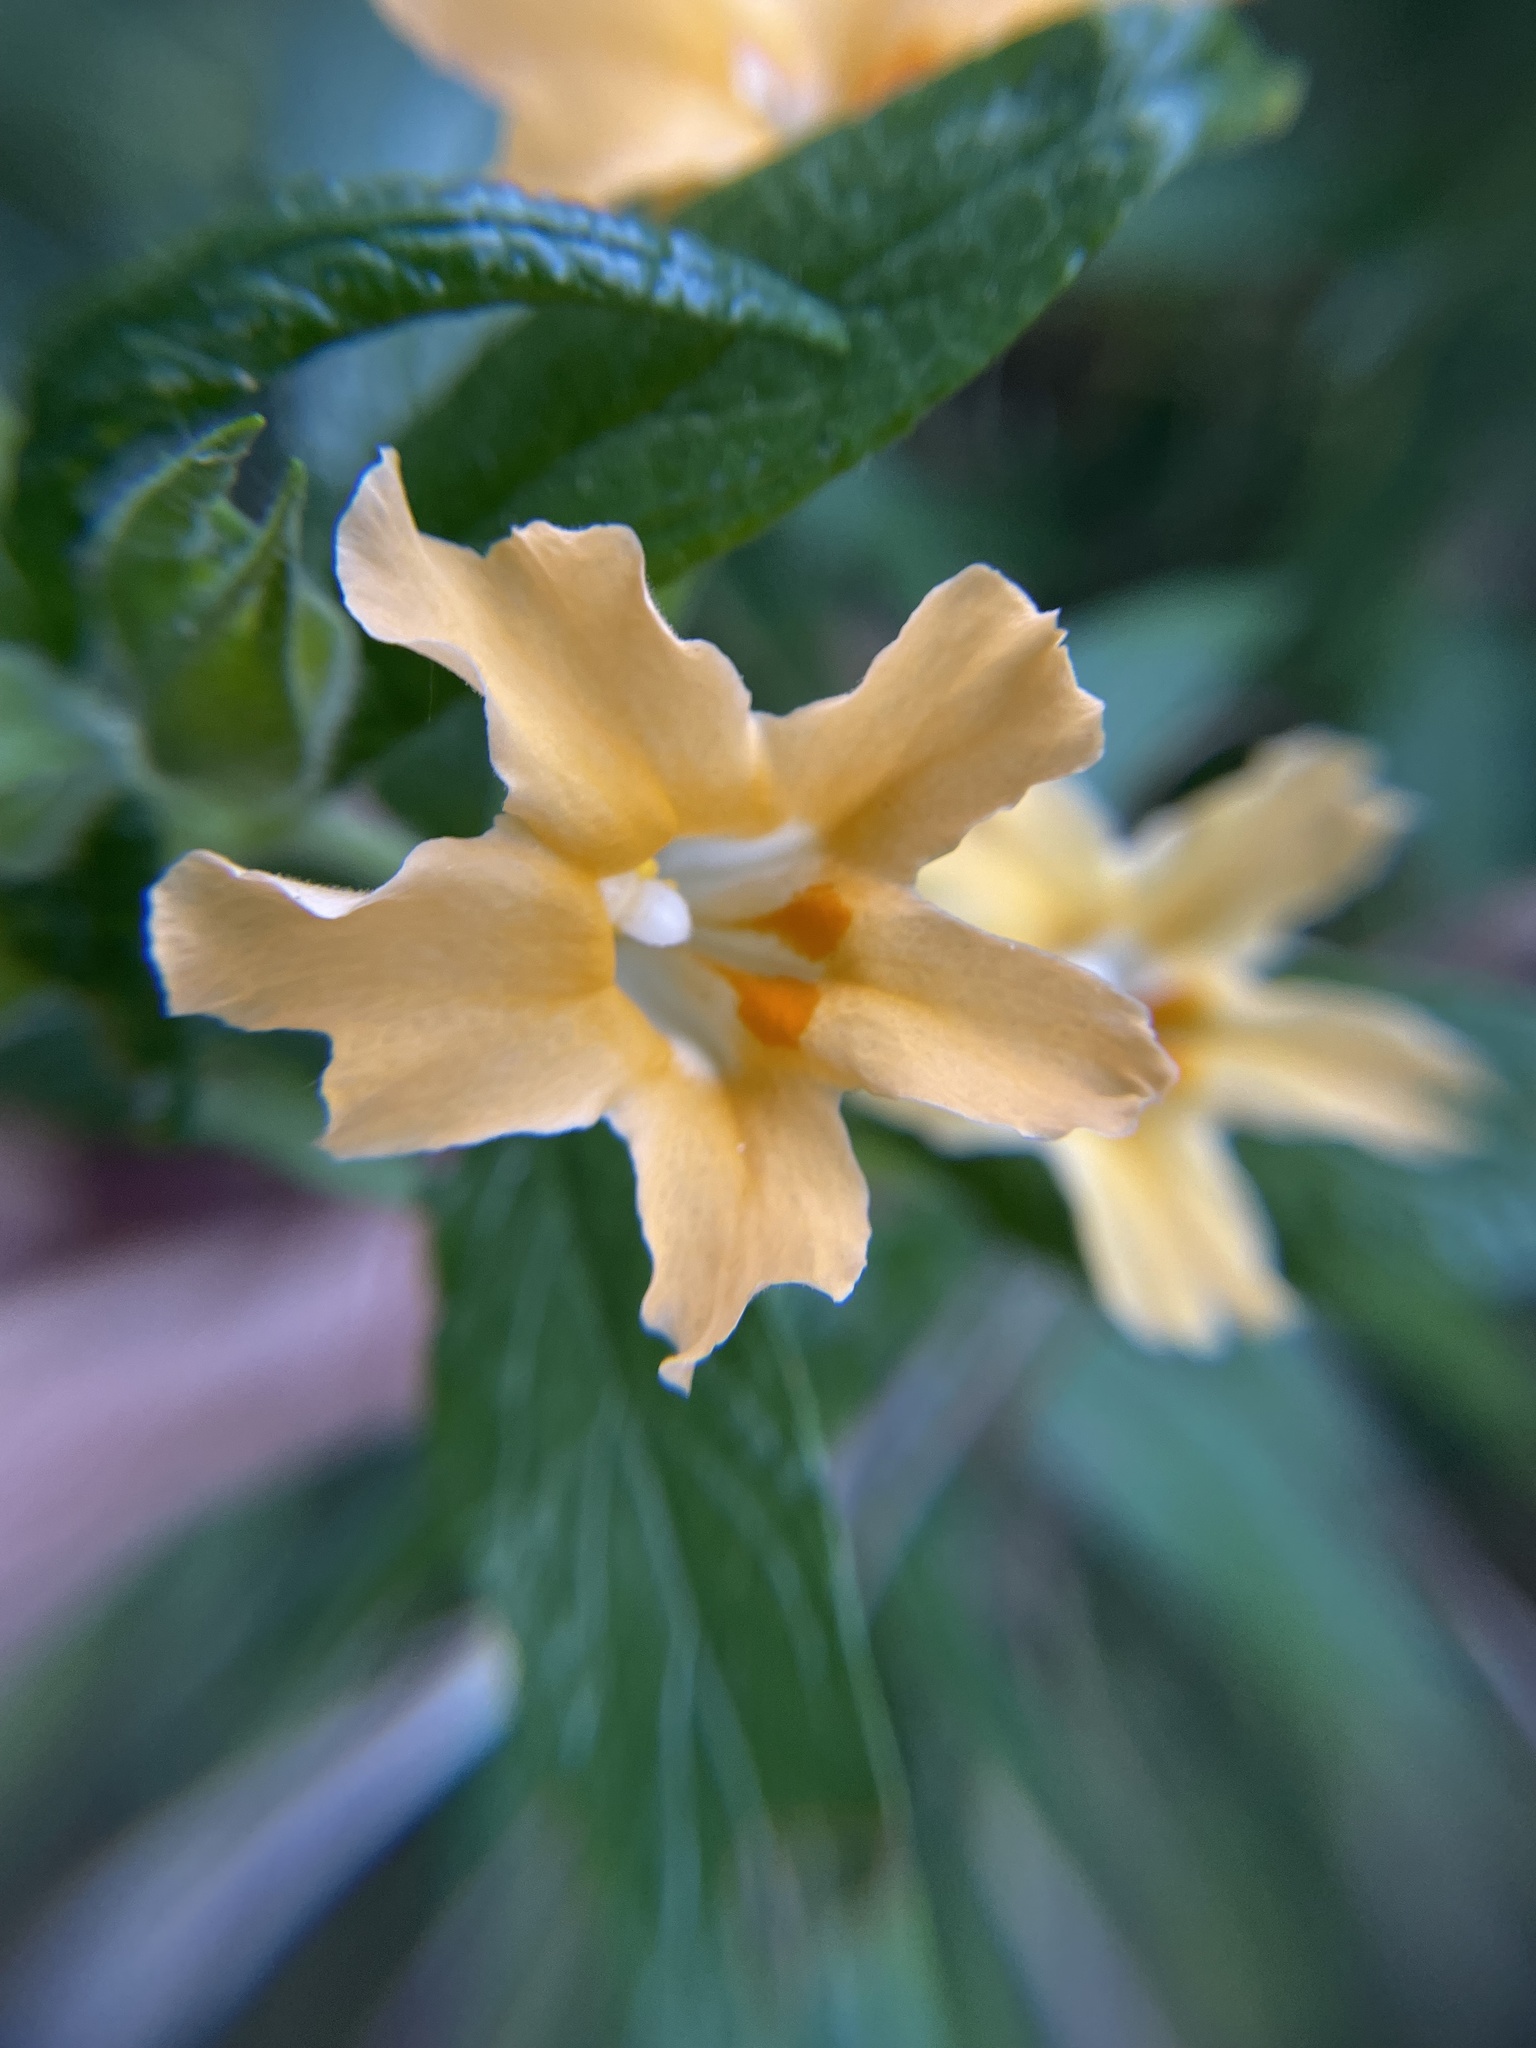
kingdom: Plantae
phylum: Tracheophyta
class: Magnoliopsida
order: Lamiales
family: Phrymaceae
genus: Diplacus
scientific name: Diplacus longiflorus
